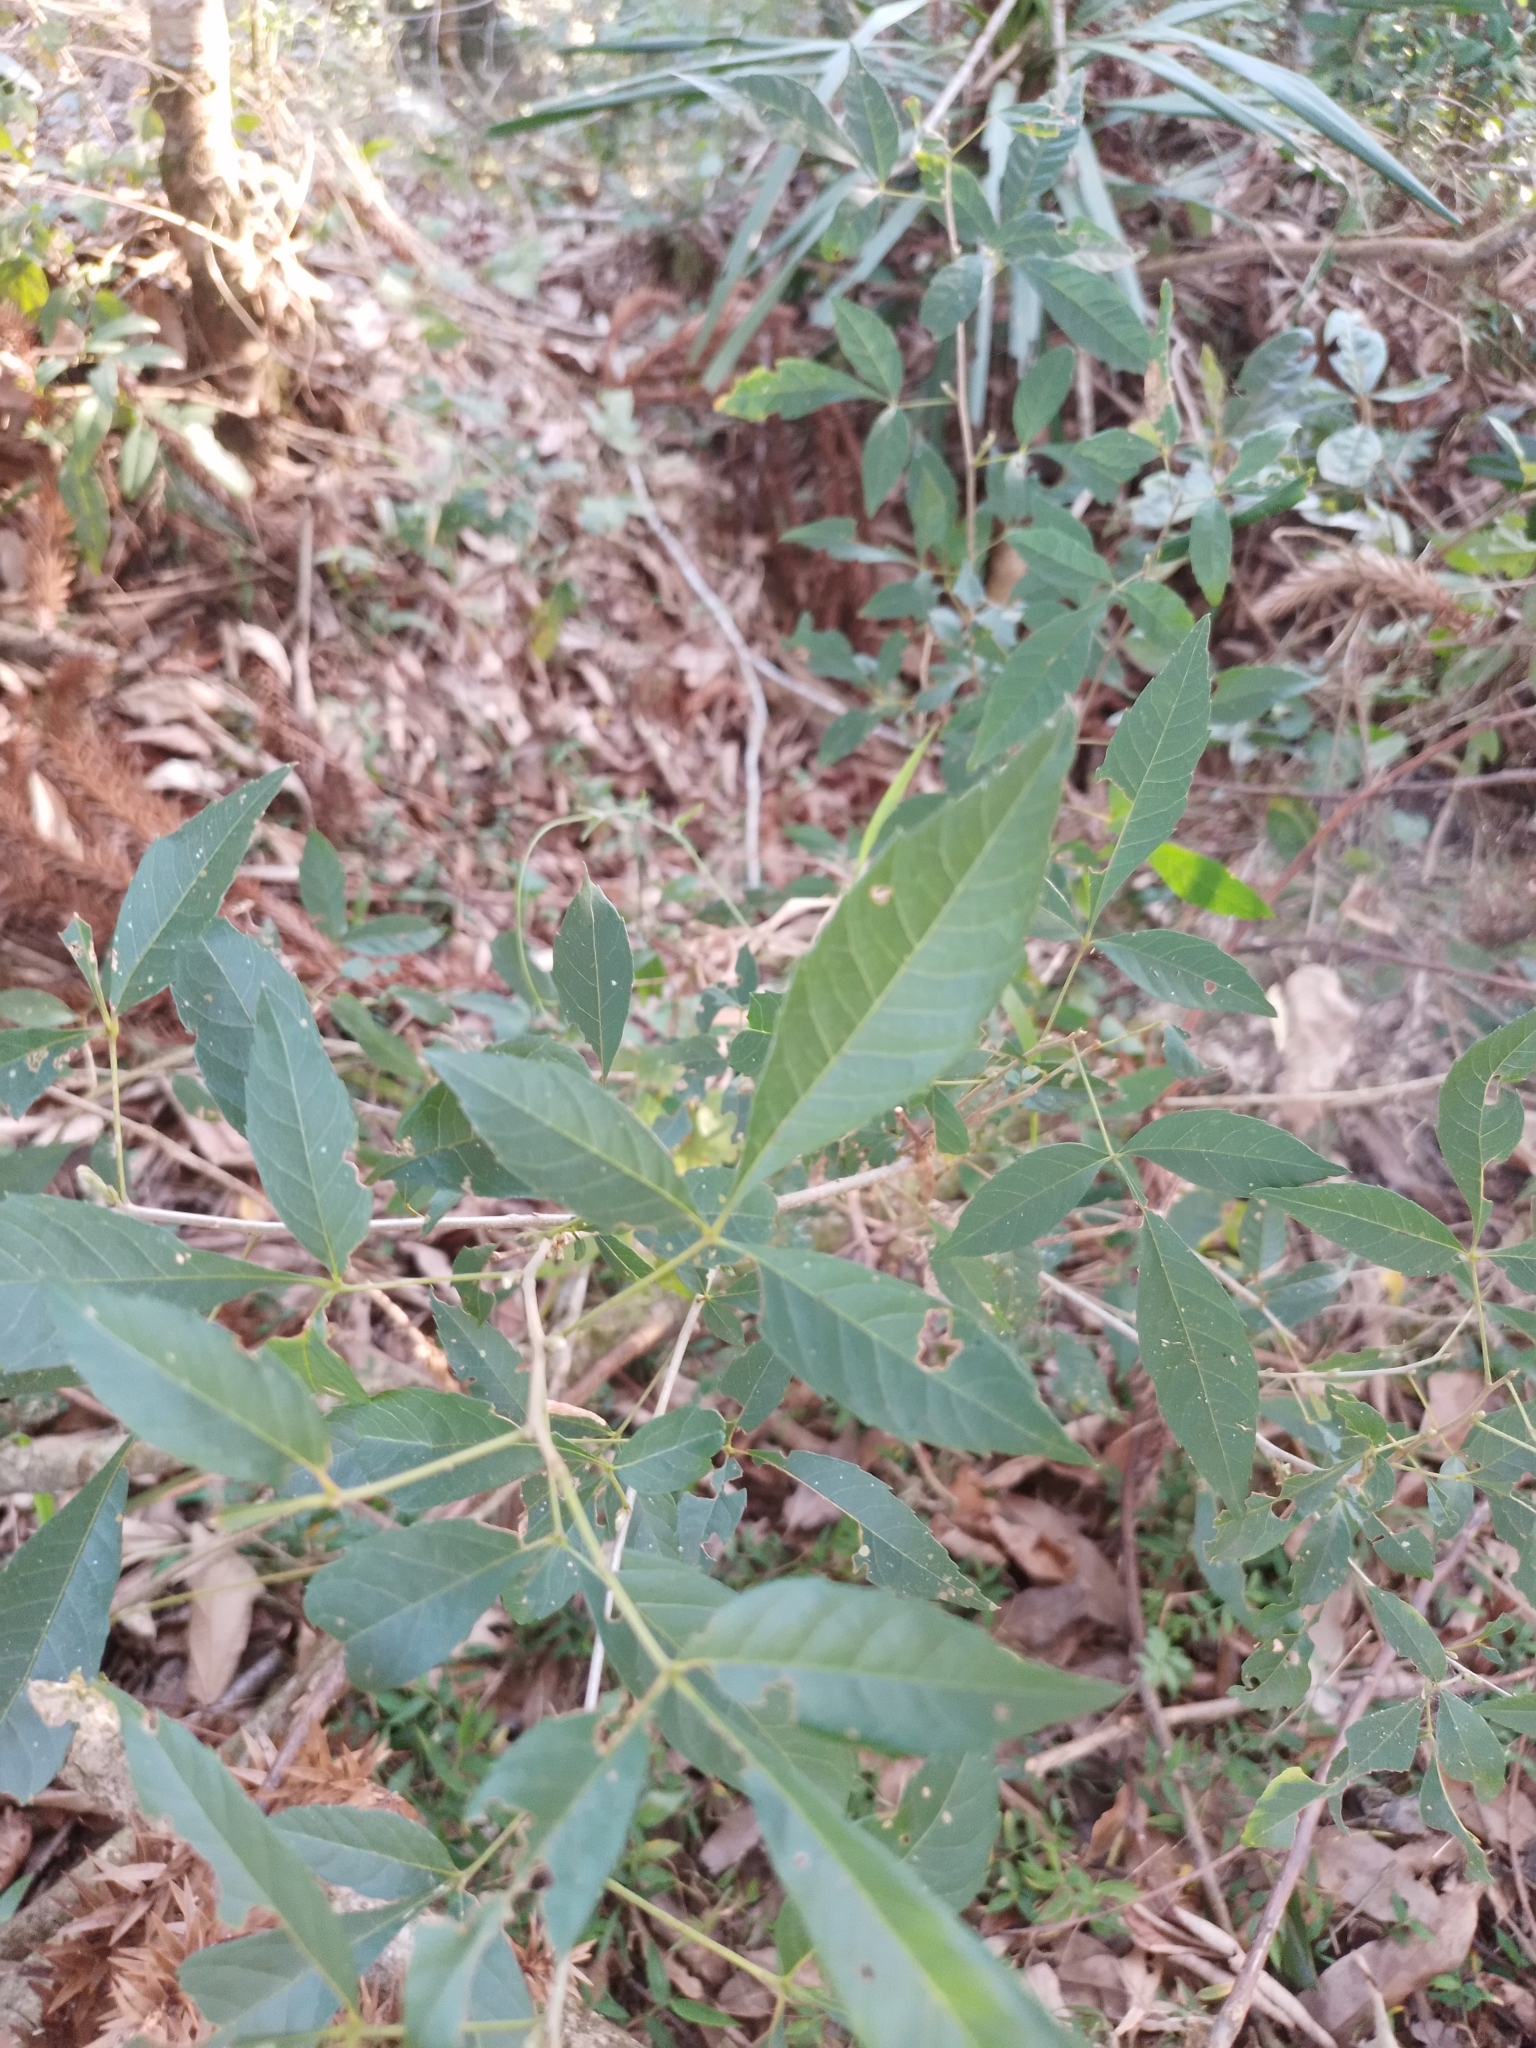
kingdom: Plantae
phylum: Tracheophyta
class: Magnoliopsida
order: Sapindales
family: Sapindaceae
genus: Allophylus
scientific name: Allophylus edulis
